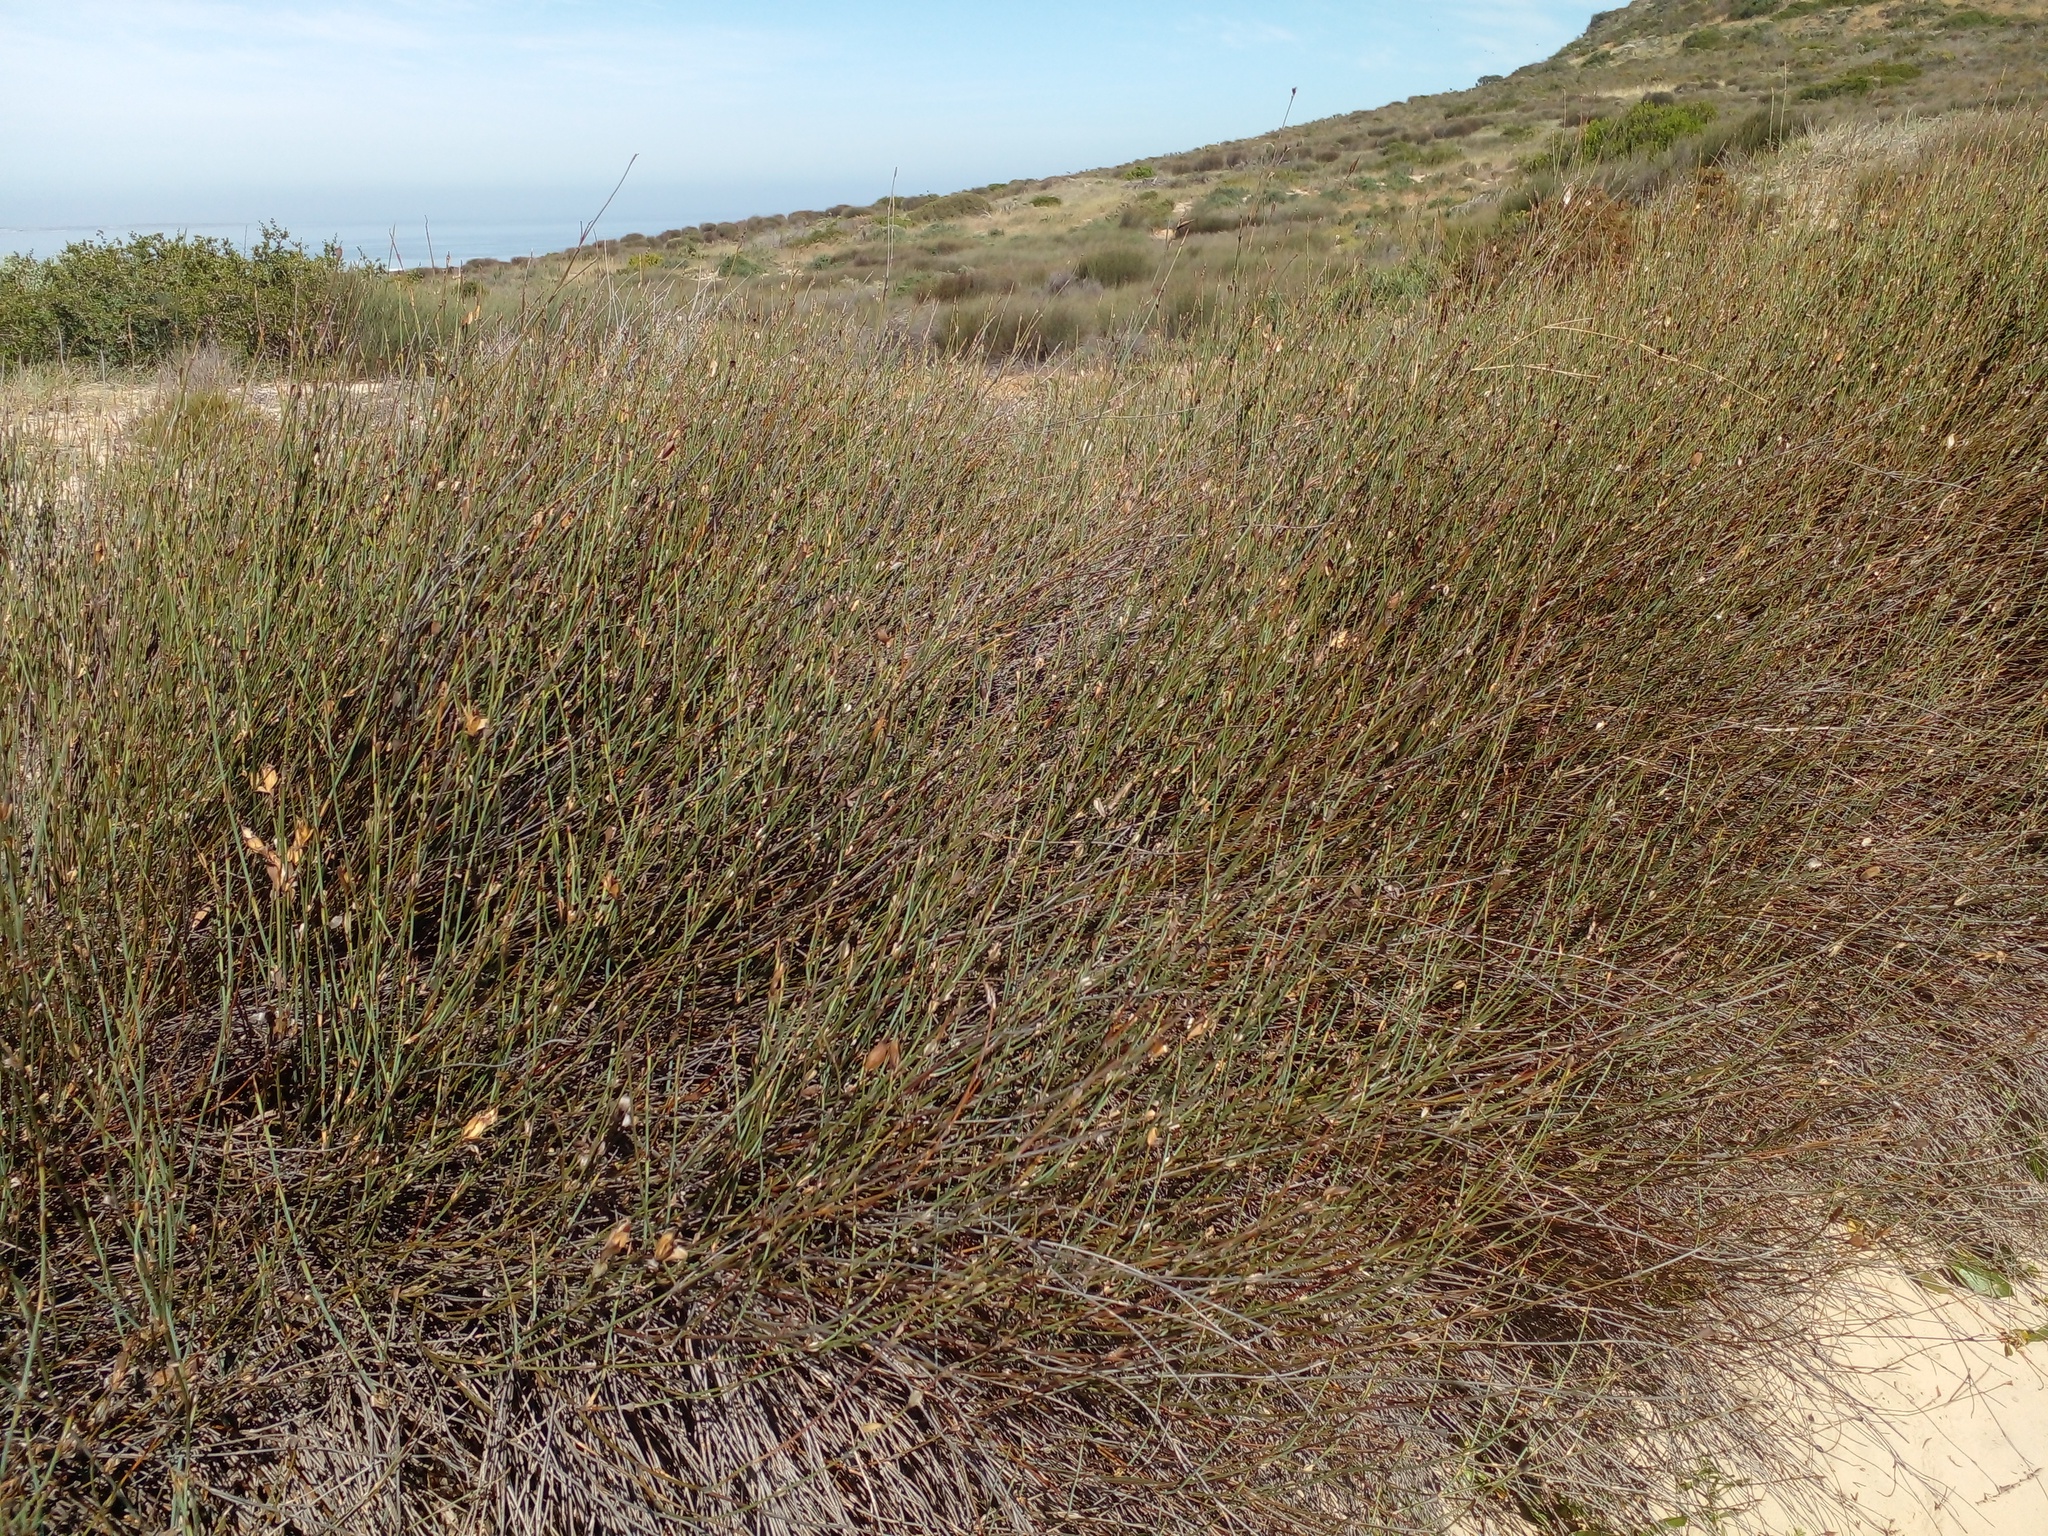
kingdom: Plantae
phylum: Tracheophyta
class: Liliopsida
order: Poales
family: Restionaceae
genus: Willdenowia
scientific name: Willdenowia incurvata
